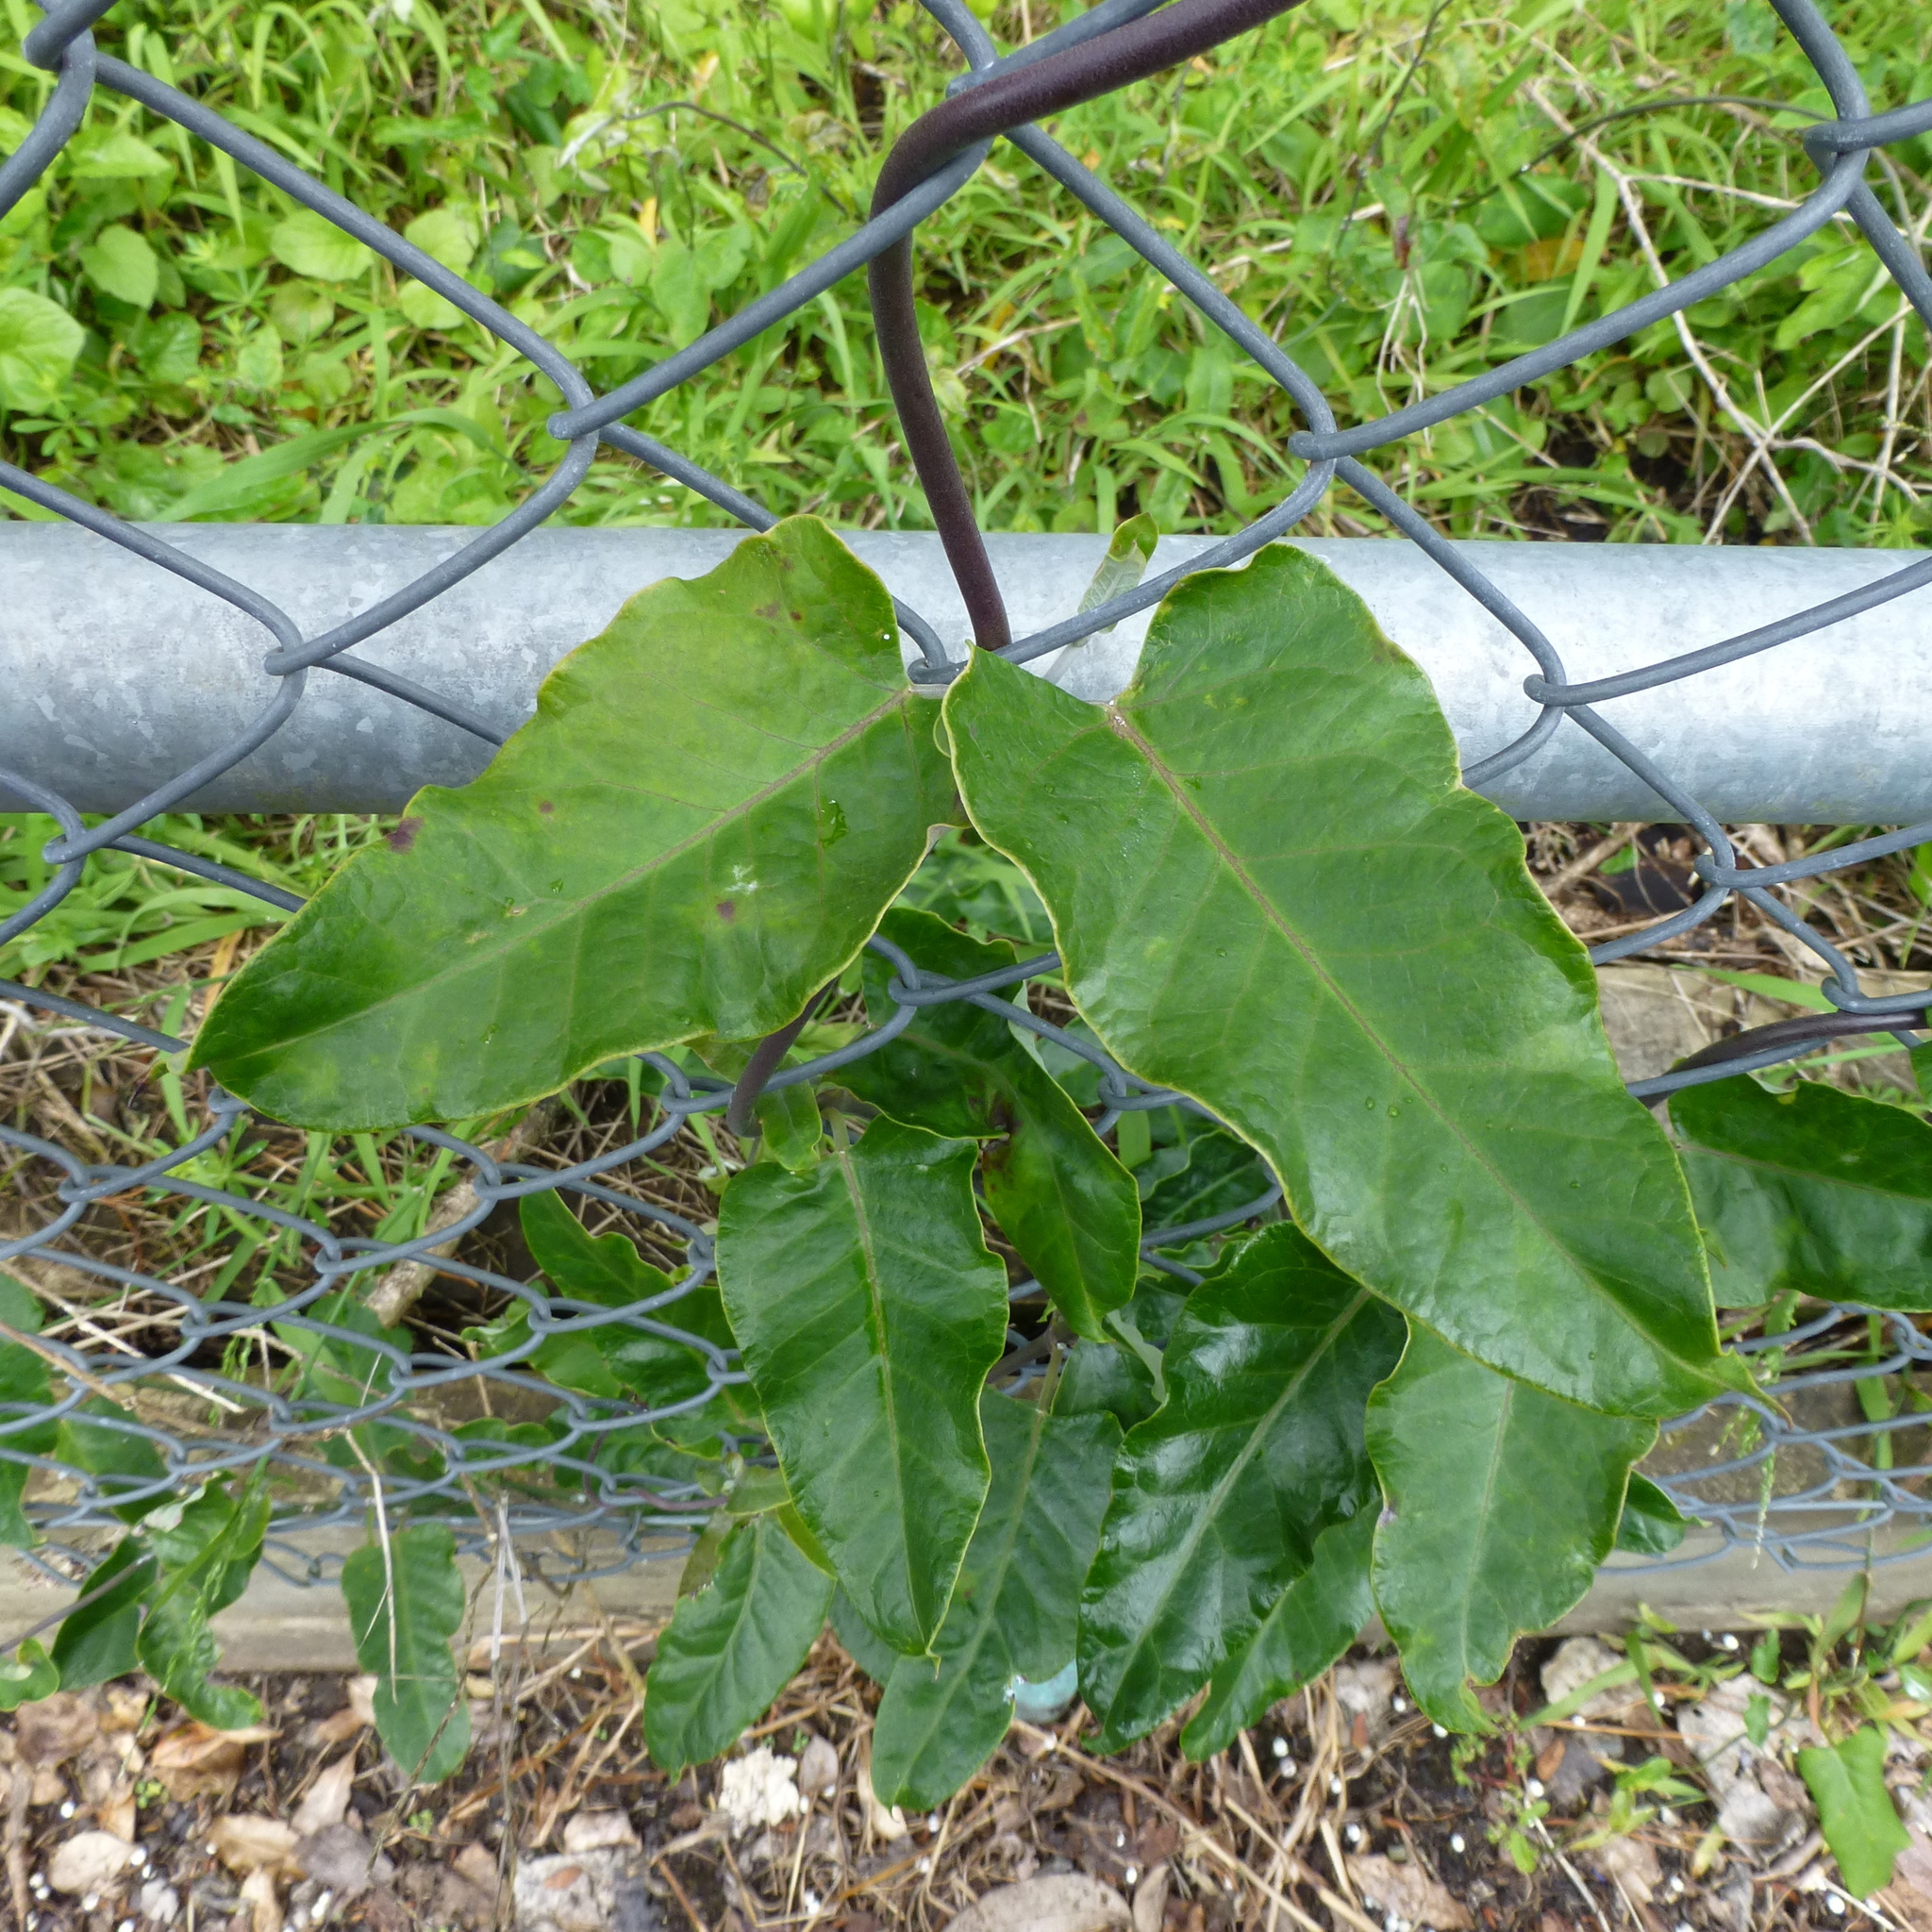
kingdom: Plantae
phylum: Tracheophyta
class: Magnoliopsida
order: Gentianales
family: Apocynaceae
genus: Araujia
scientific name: Araujia sericifera
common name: White bladderflower
